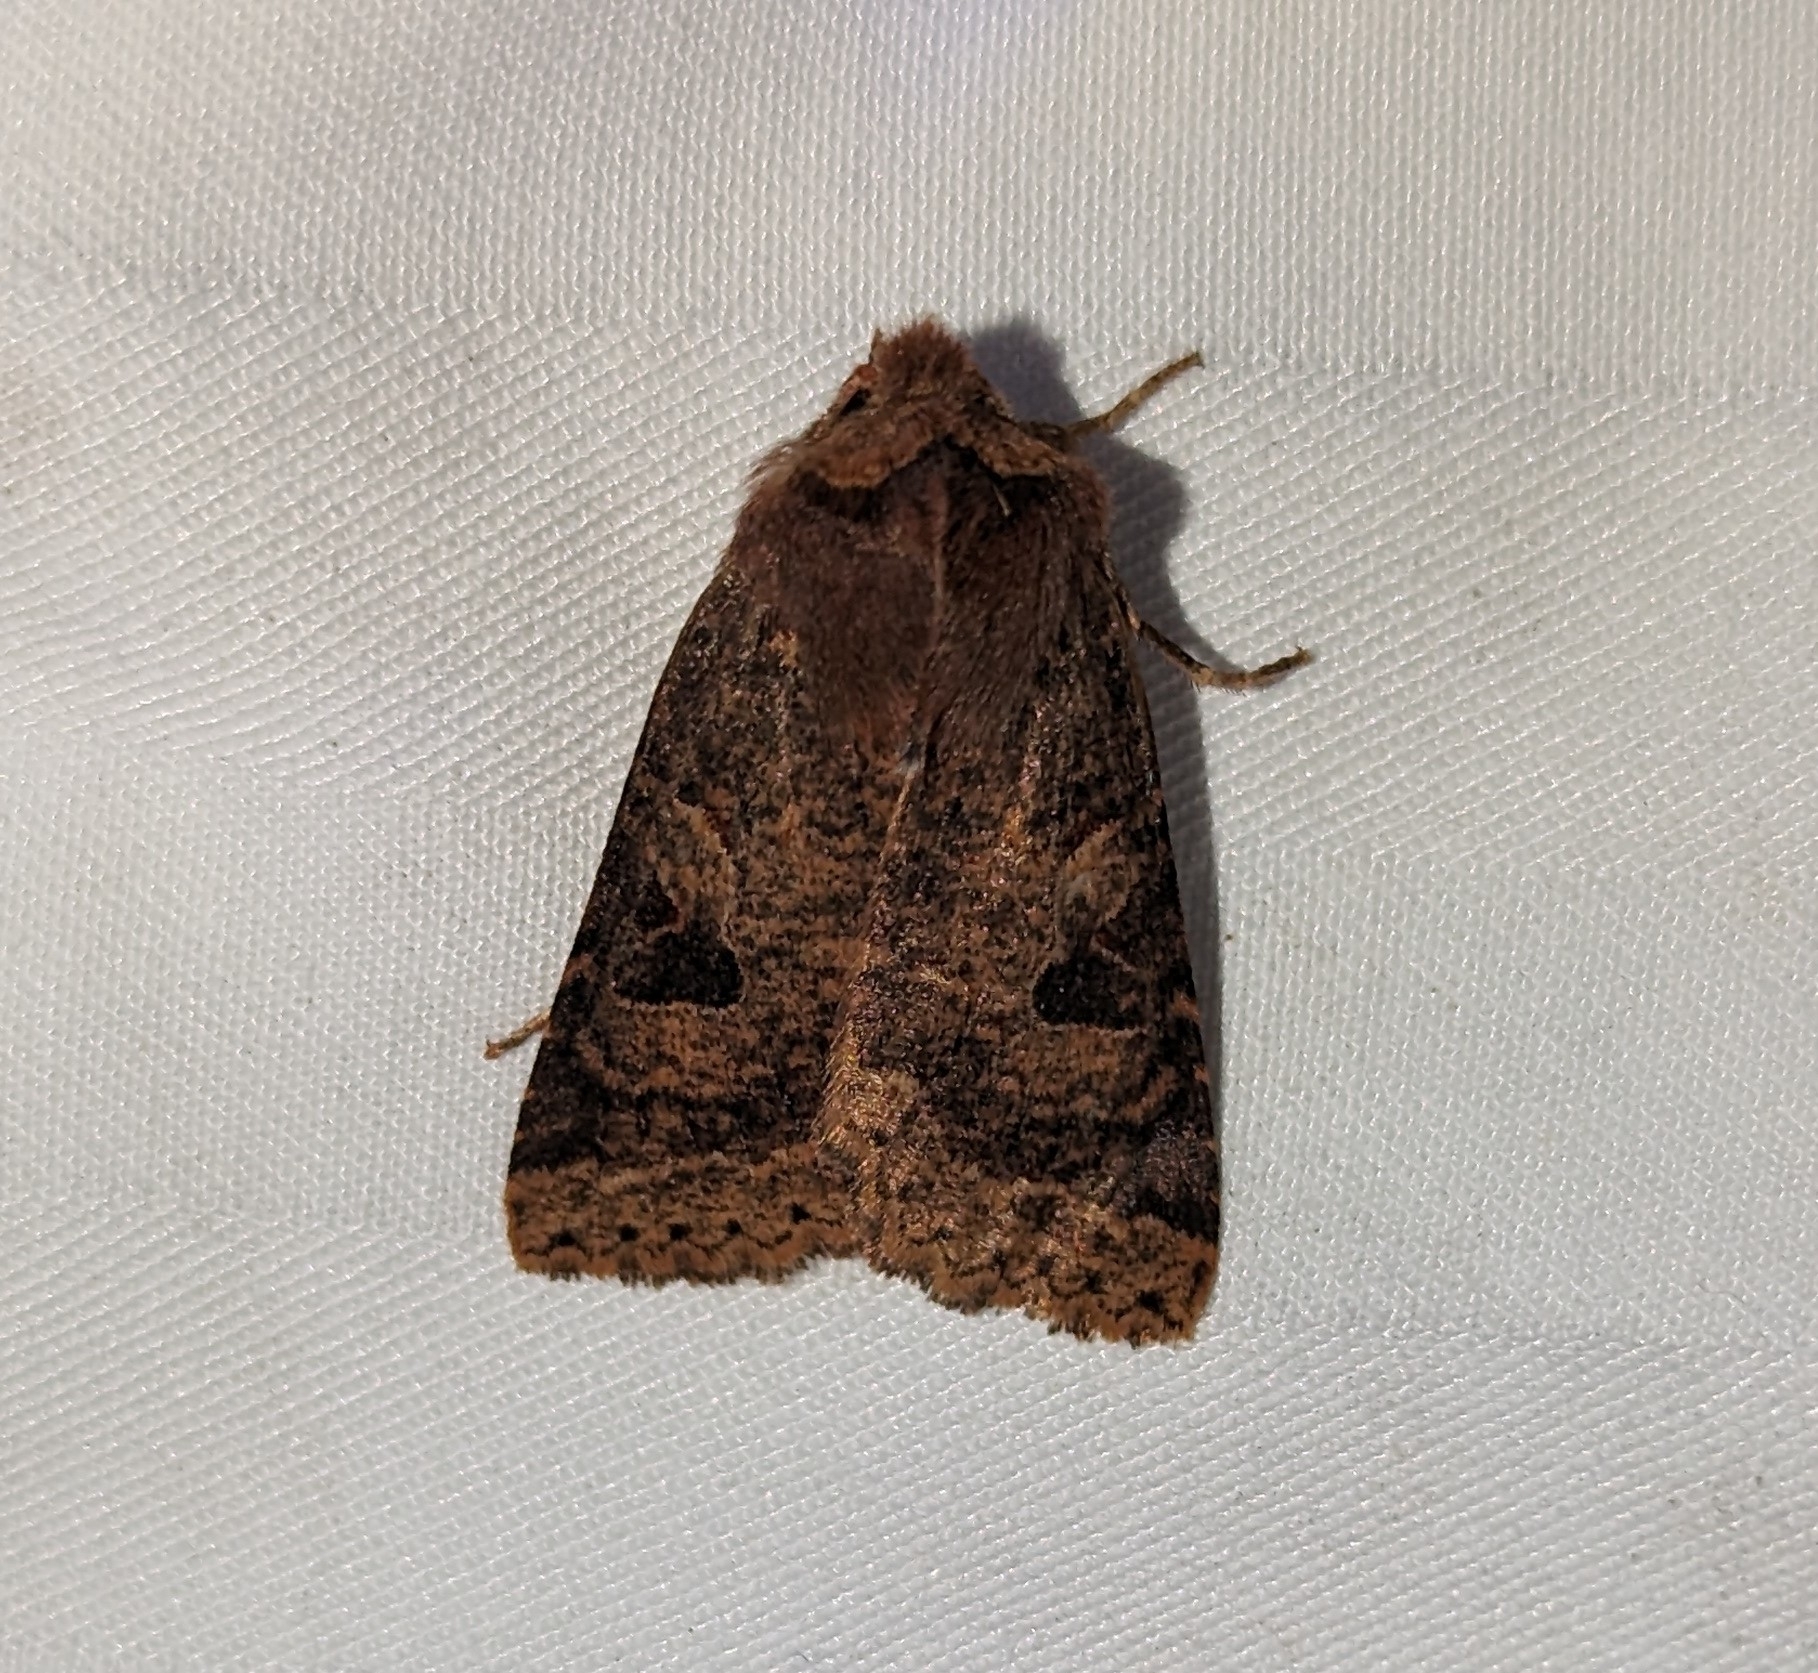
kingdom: Animalia
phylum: Arthropoda
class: Insecta
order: Lepidoptera
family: Noctuidae
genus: Orthosia
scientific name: Orthosia praeses
